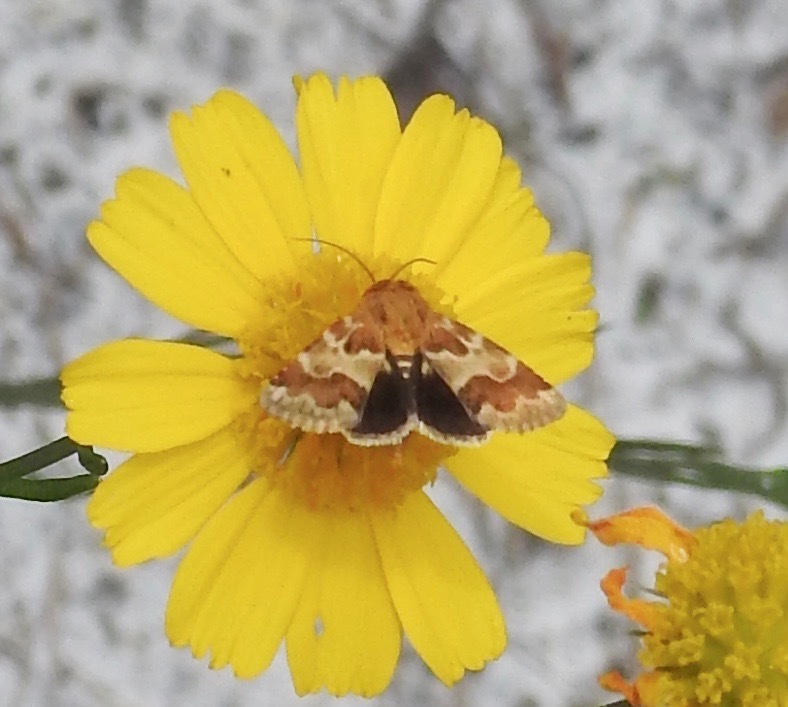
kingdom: Animalia
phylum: Arthropoda
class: Insecta
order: Lepidoptera
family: Noctuidae
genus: Schinia
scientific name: Schinia tuberculum
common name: Golden aster flower moth
